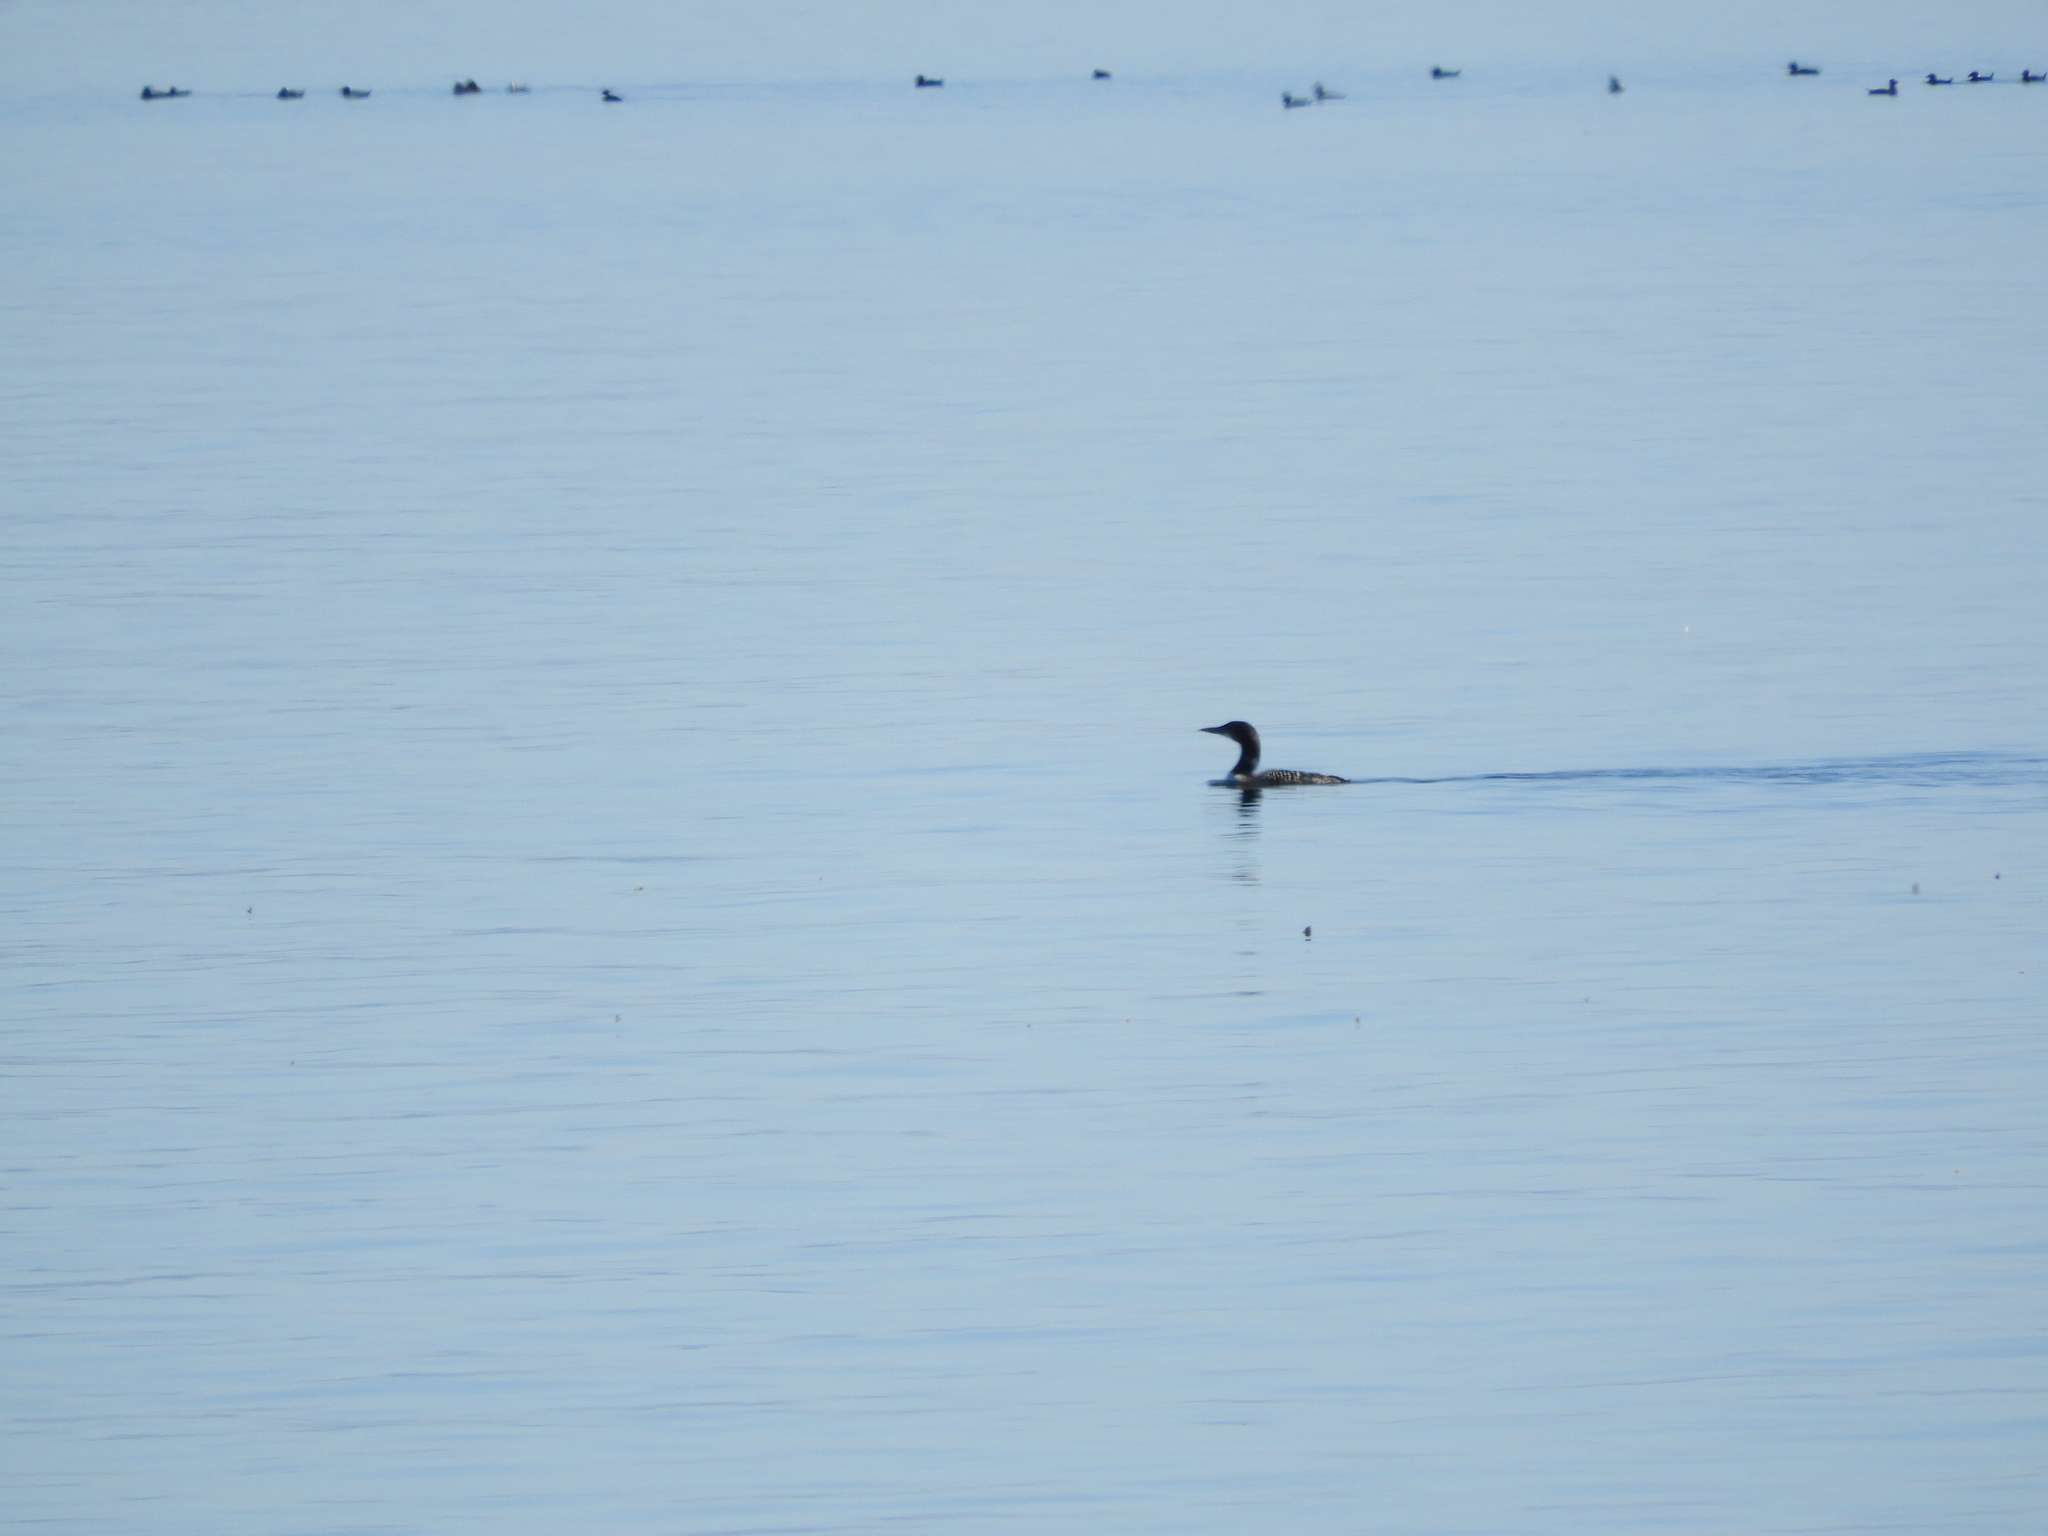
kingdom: Animalia
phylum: Chordata
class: Aves
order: Gaviiformes
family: Gaviidae
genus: Gavia
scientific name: Gavia immer
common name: Common loon
